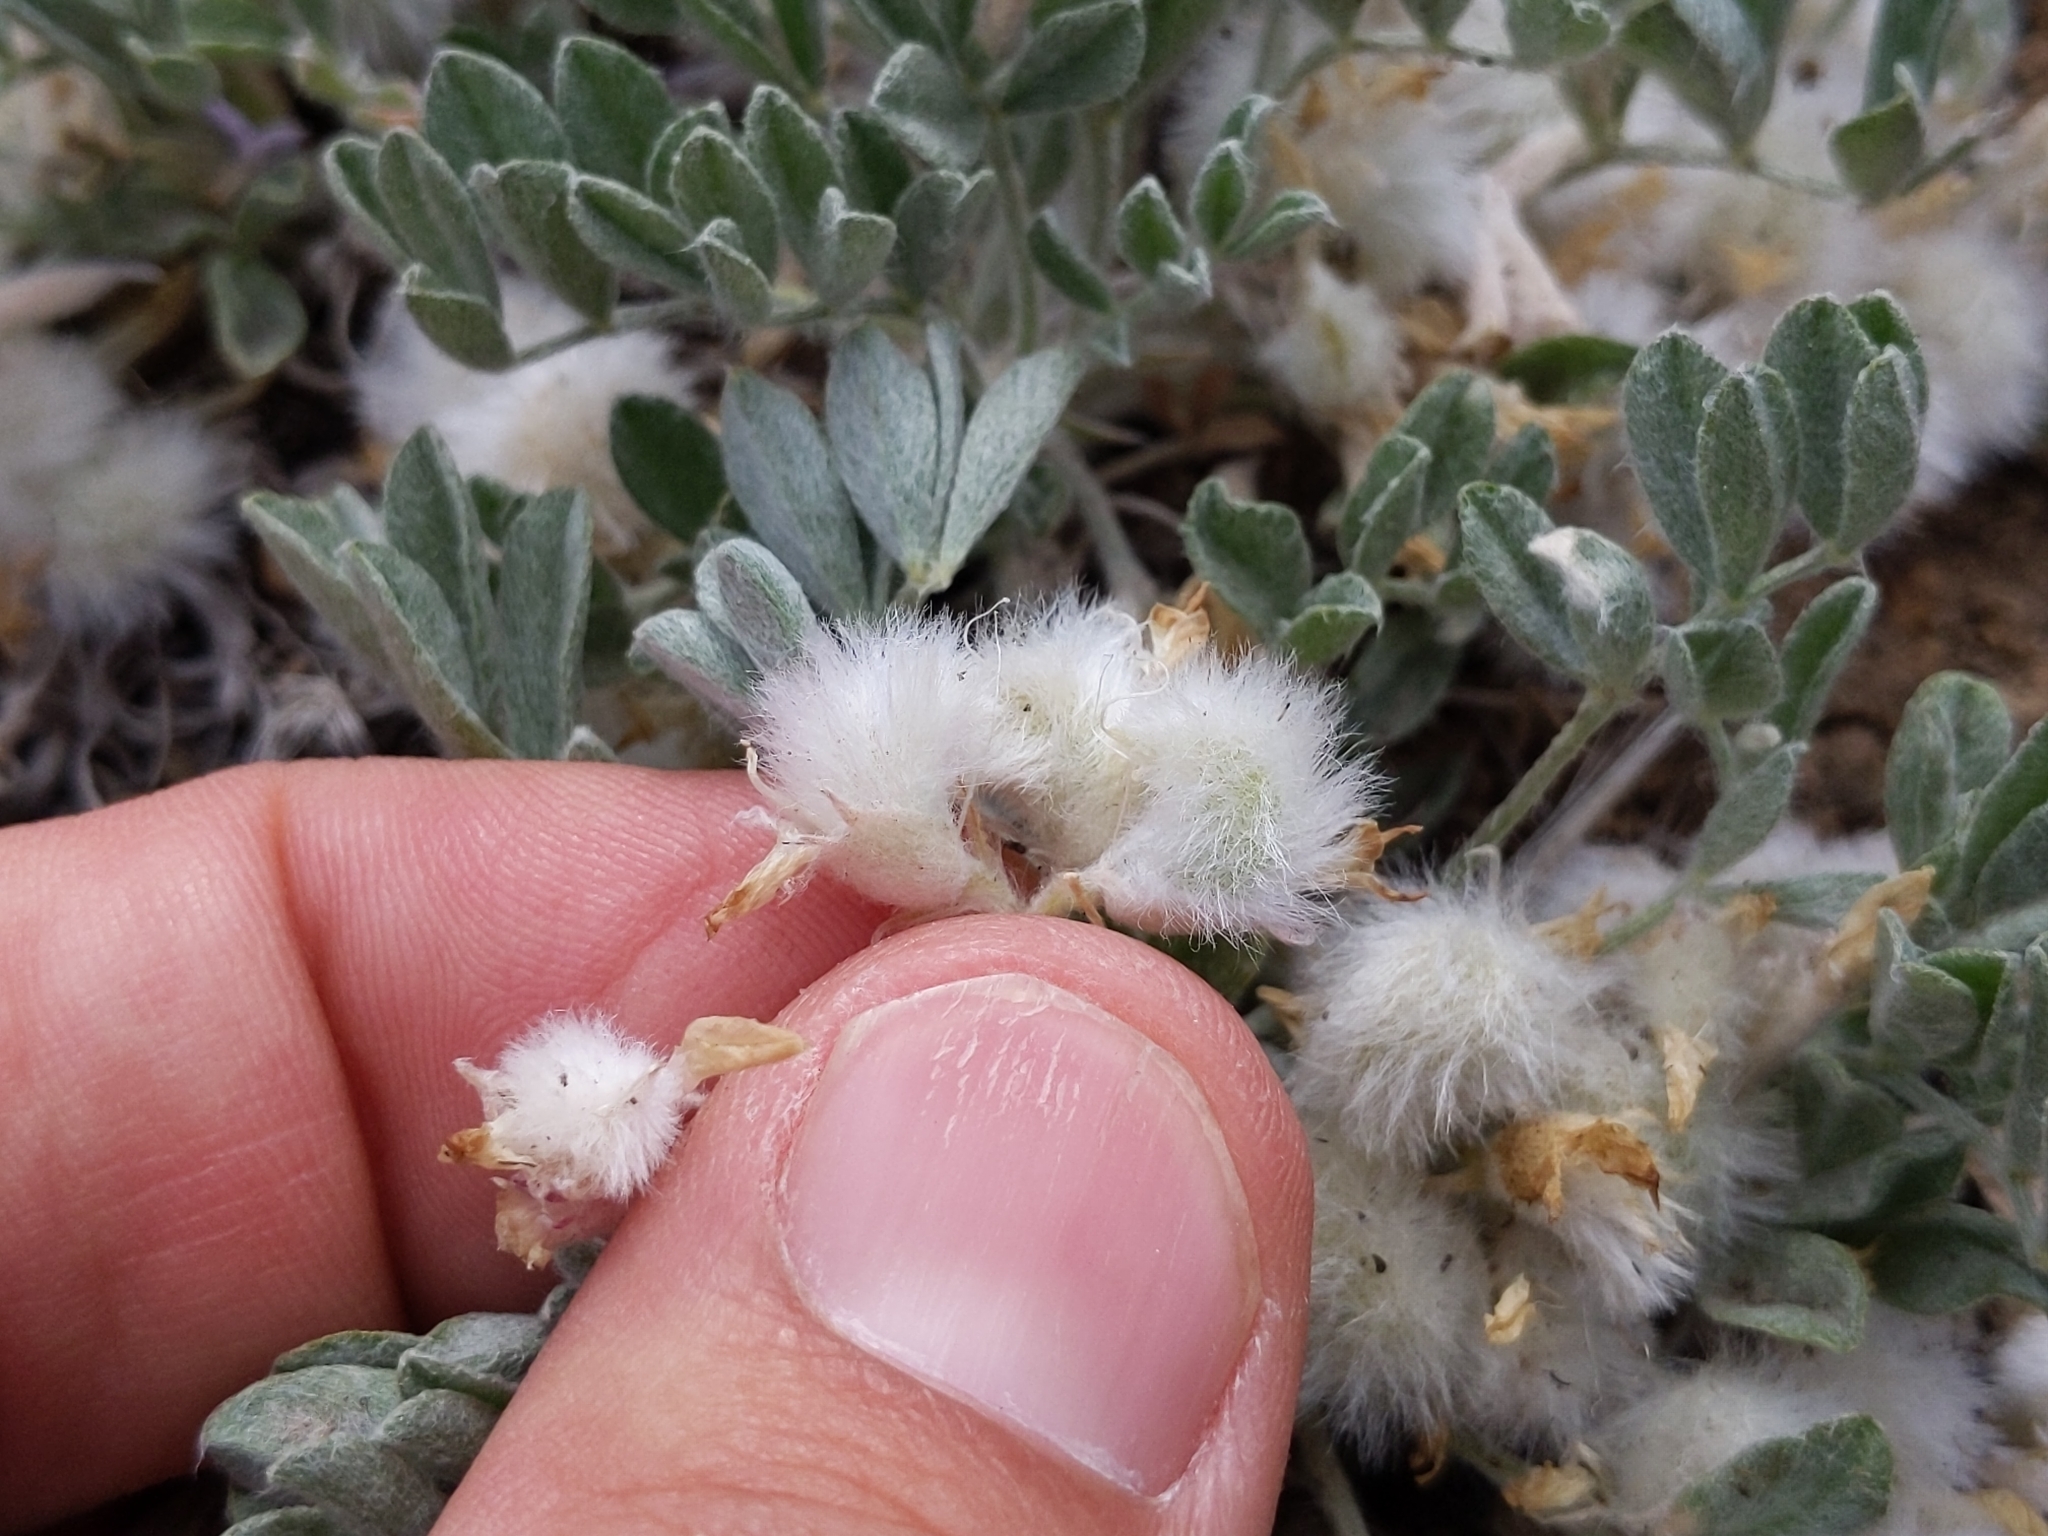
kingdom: Plantae
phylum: Tracheophyta
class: Magnoliopsida
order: Fabales
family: Fabaceae
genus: Astragalus
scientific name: Astragalus purshii
